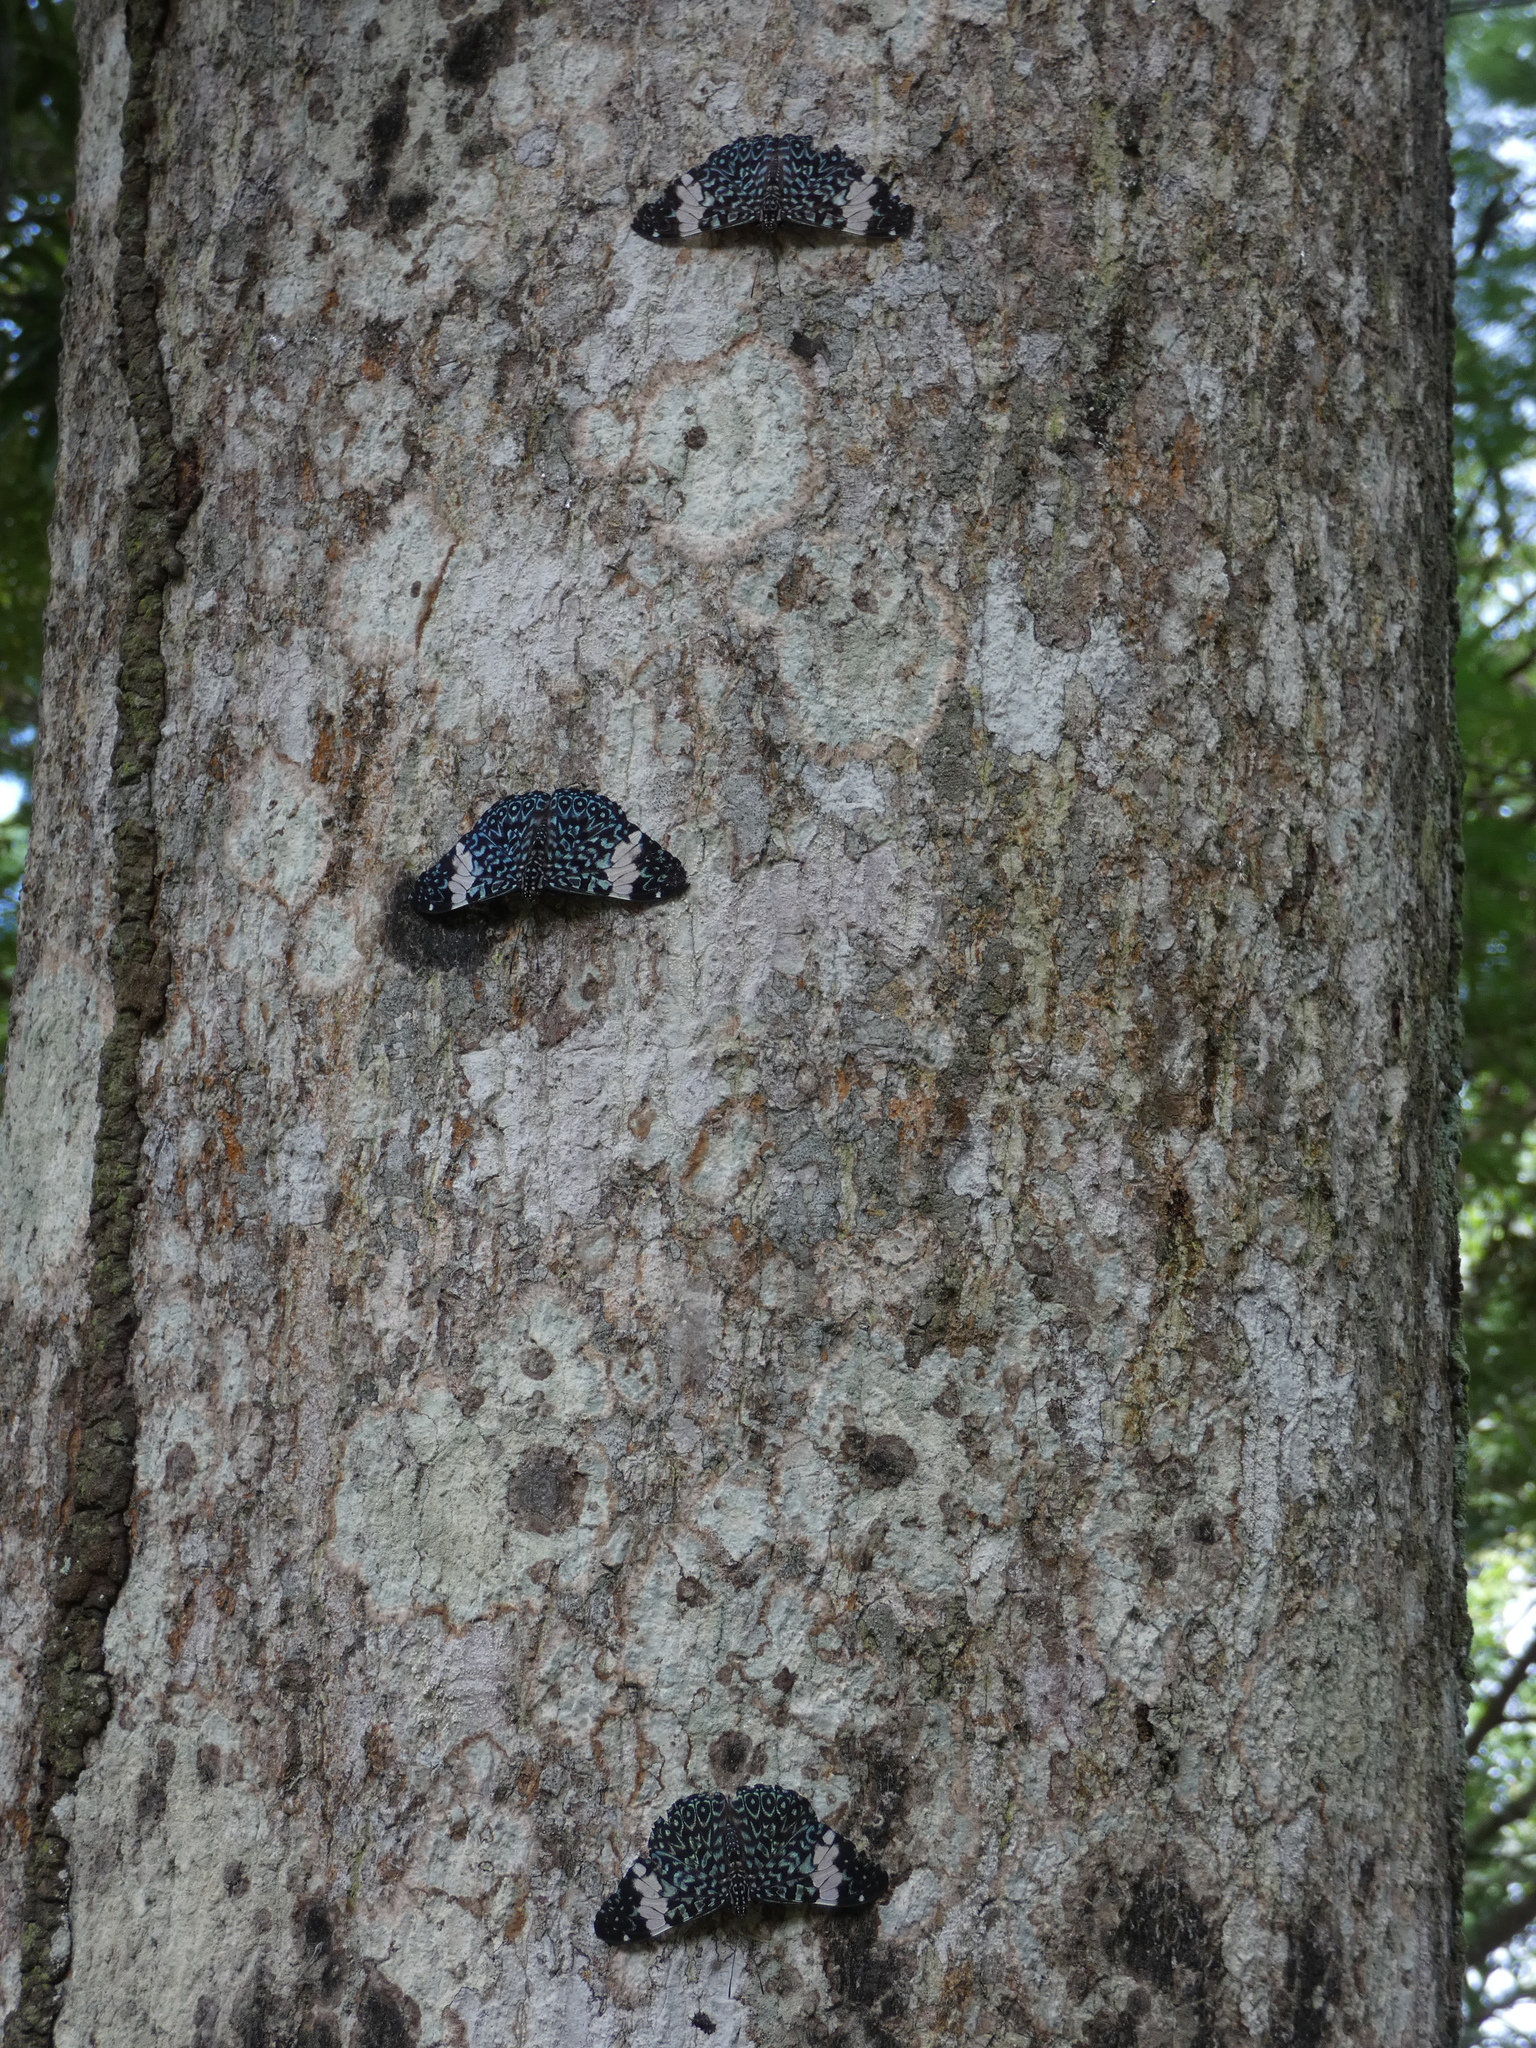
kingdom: Animalia
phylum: Arthropoda
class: Insecta
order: Lepidoptera
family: Nymphalidae
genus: Hamadryas
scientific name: Hamadryas amphinome
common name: Red cracker
